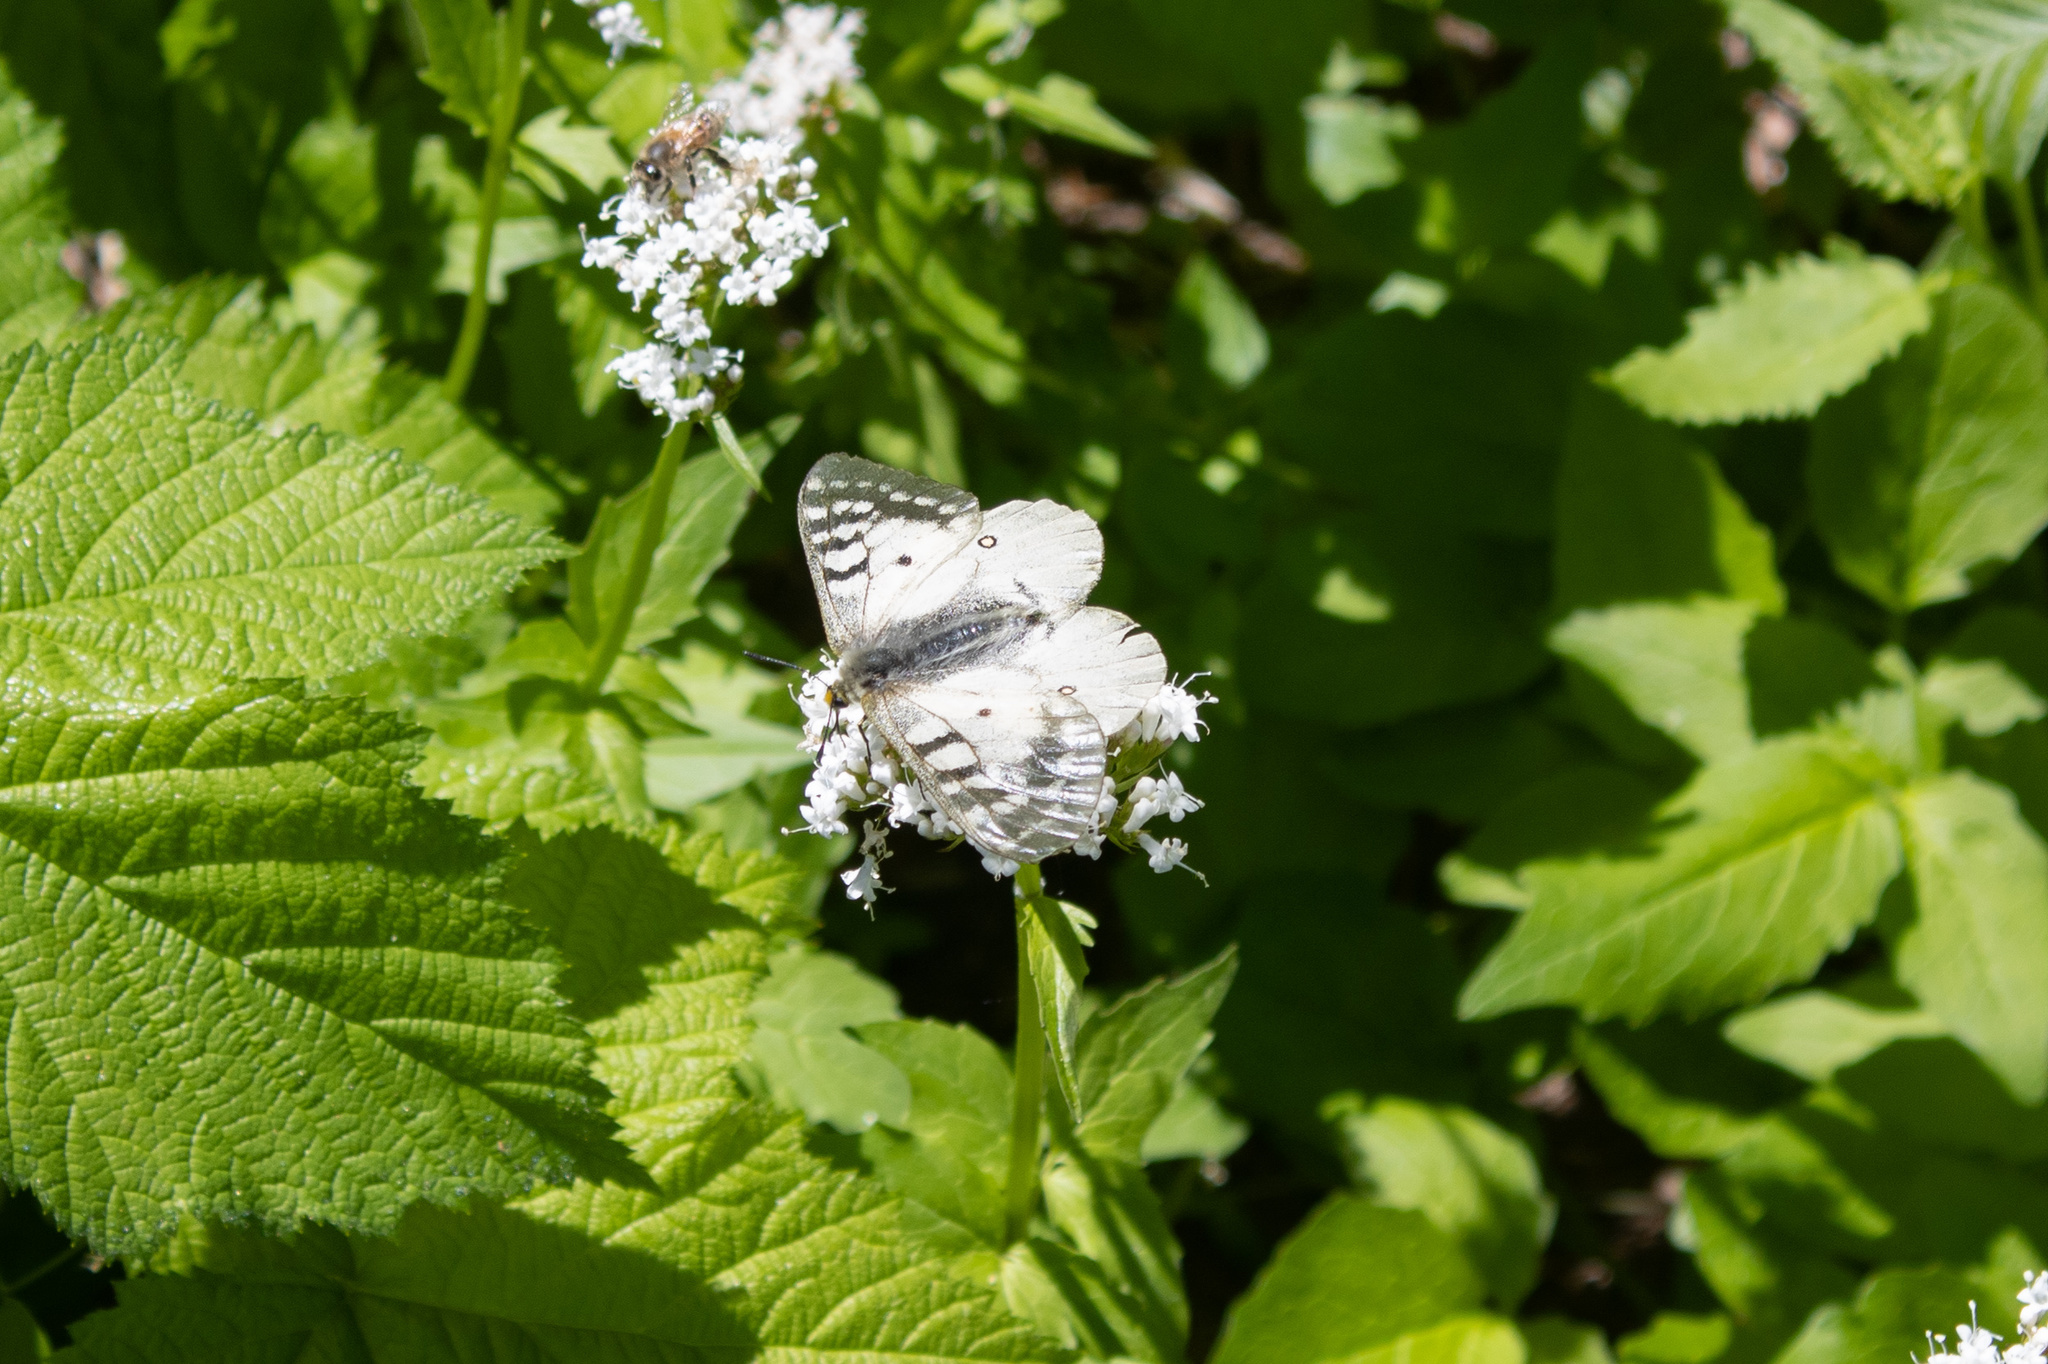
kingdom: Animalia
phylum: Arthropoda
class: Insecta
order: Lepidoptera
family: Papilionidae
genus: Parnassius
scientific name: Parnassius clodius
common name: American apollo
